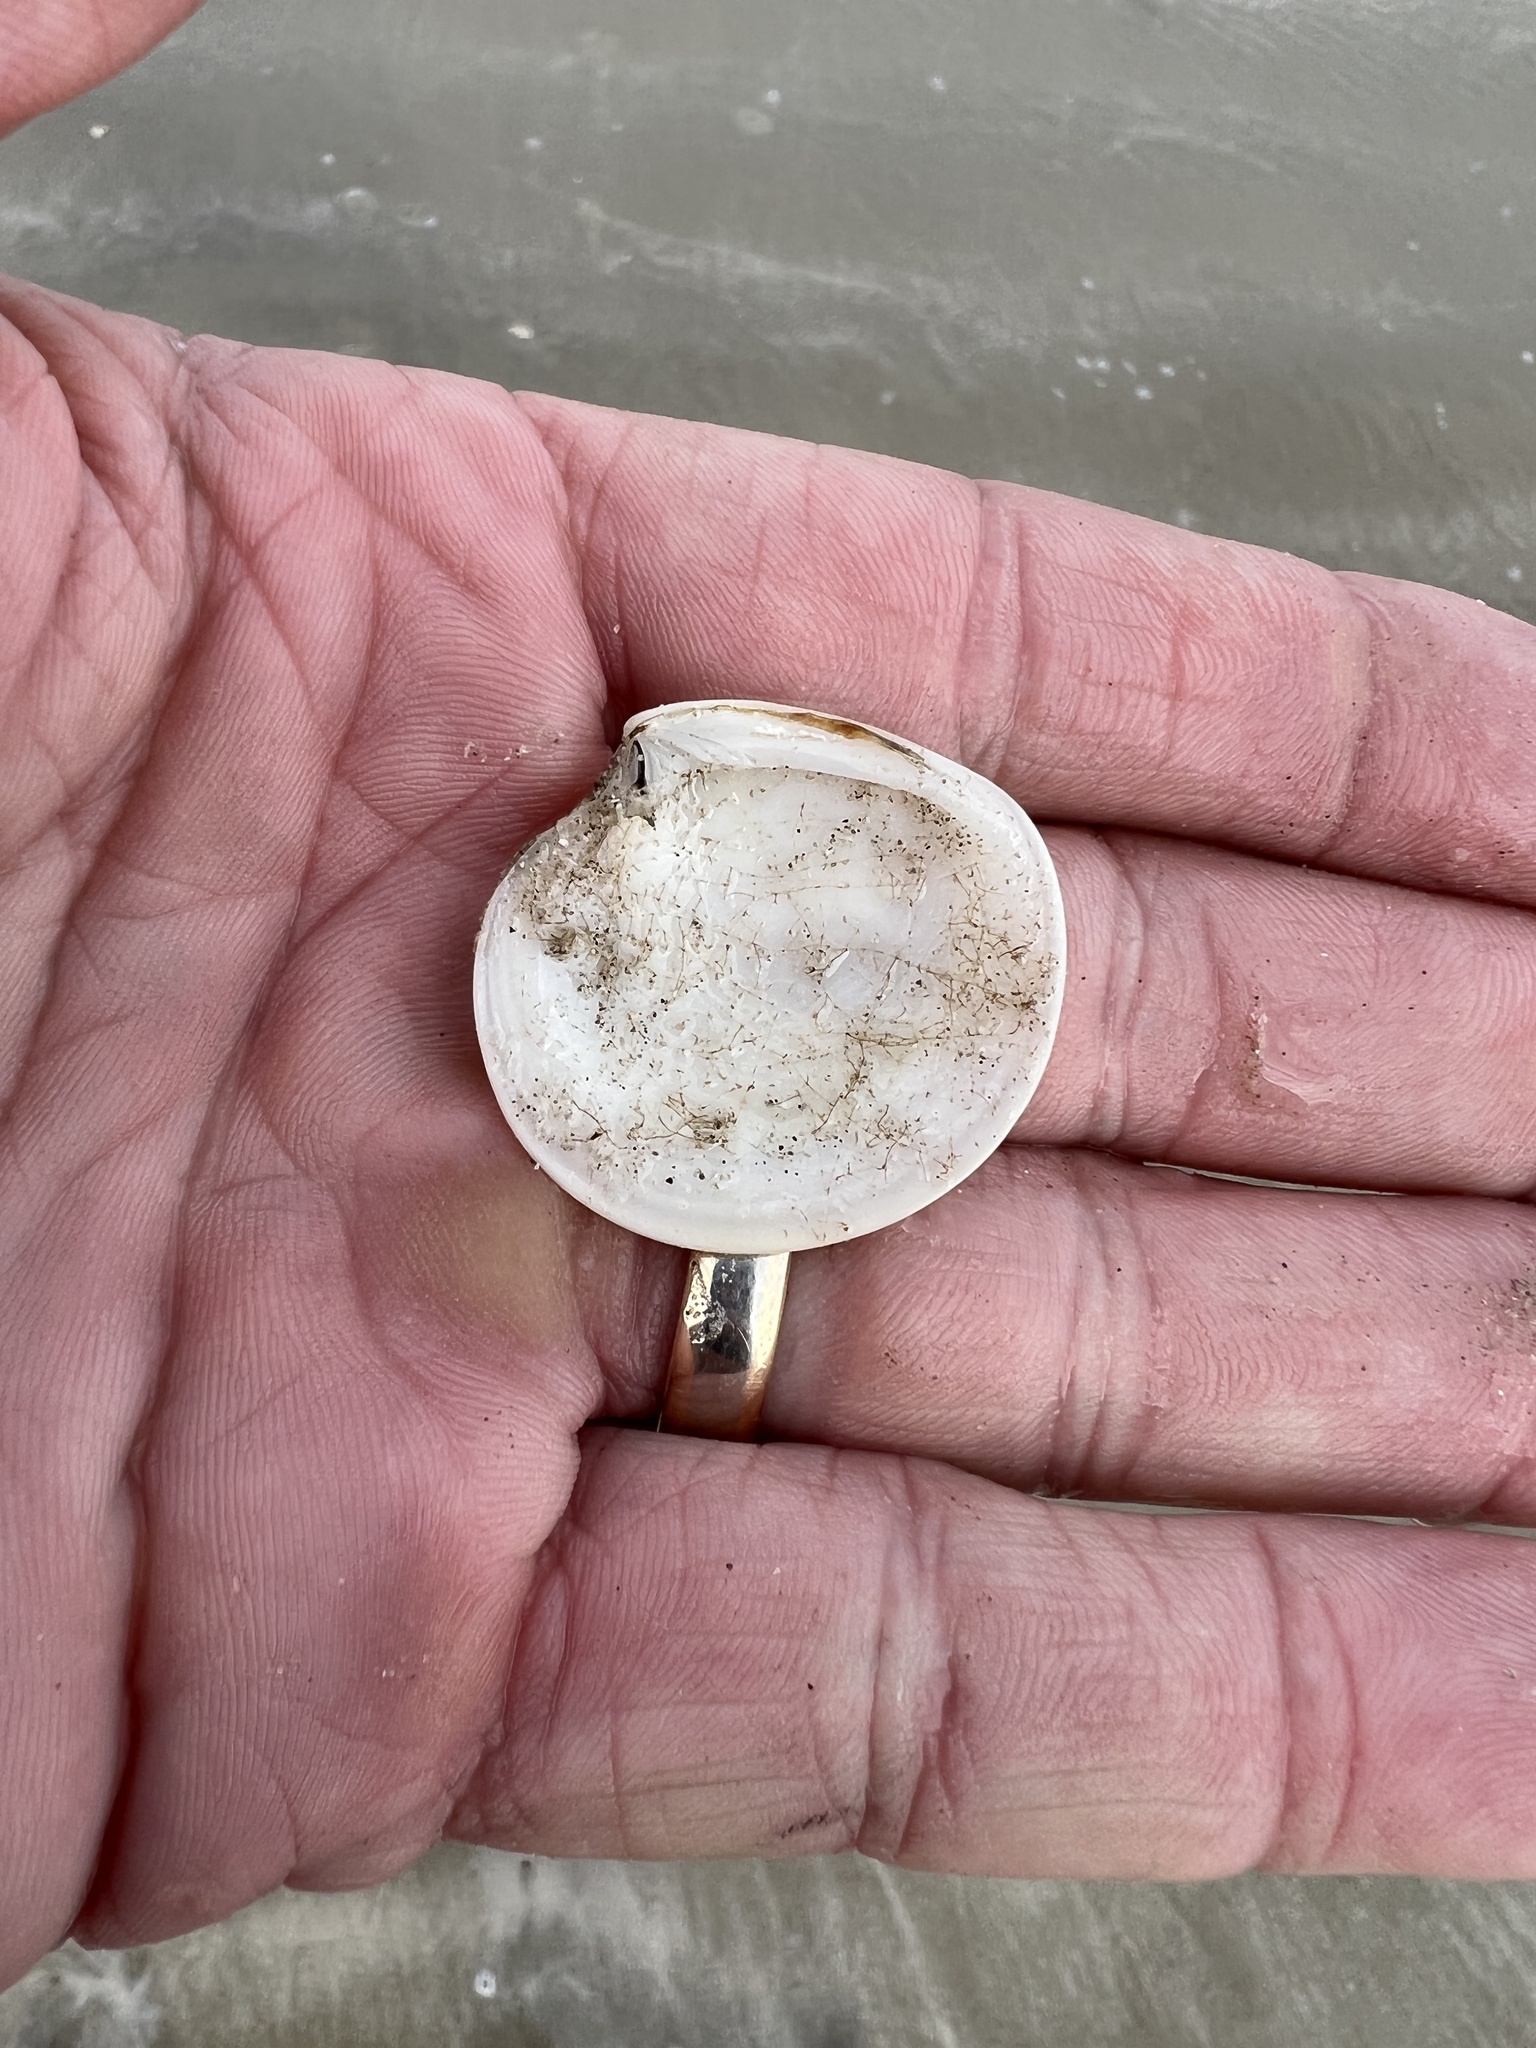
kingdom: Animalia
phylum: Mollusca
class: Bivalvia
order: Venerida
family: Veneridae
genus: Dosinia
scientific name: Dosinia discus
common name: Disk dosinia
